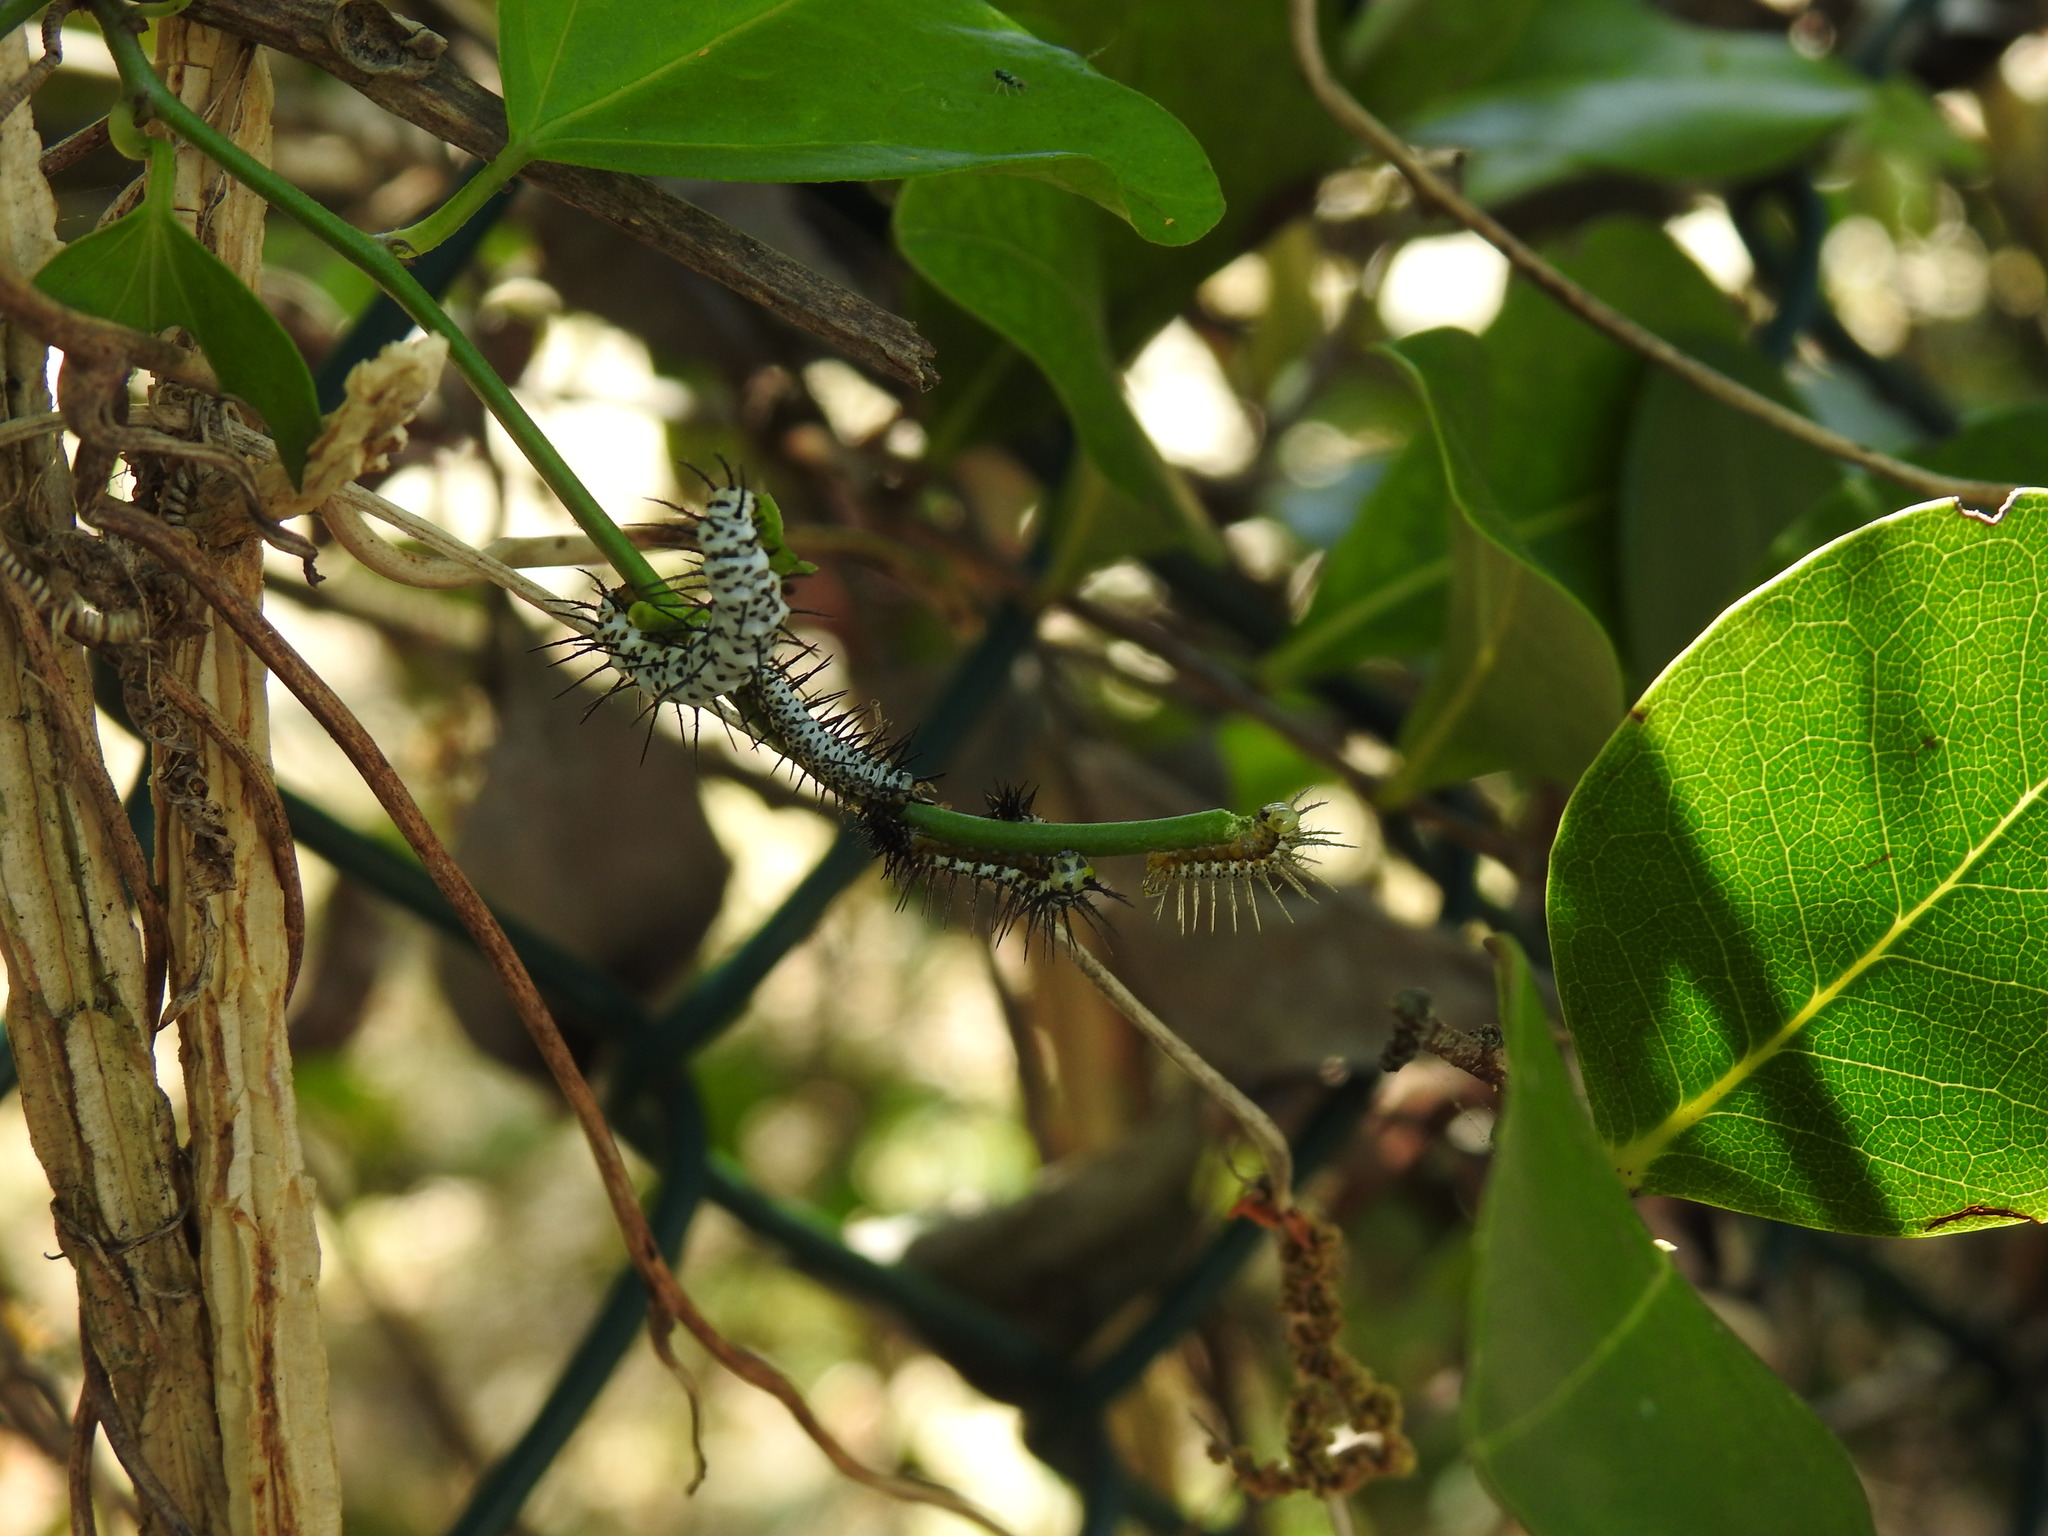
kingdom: Animalia
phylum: Arthropoda
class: Insecta
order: Lepidoptera
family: Nymphalidae
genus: Heliconius
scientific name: Heliconius charithonia
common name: Zebra long wing
